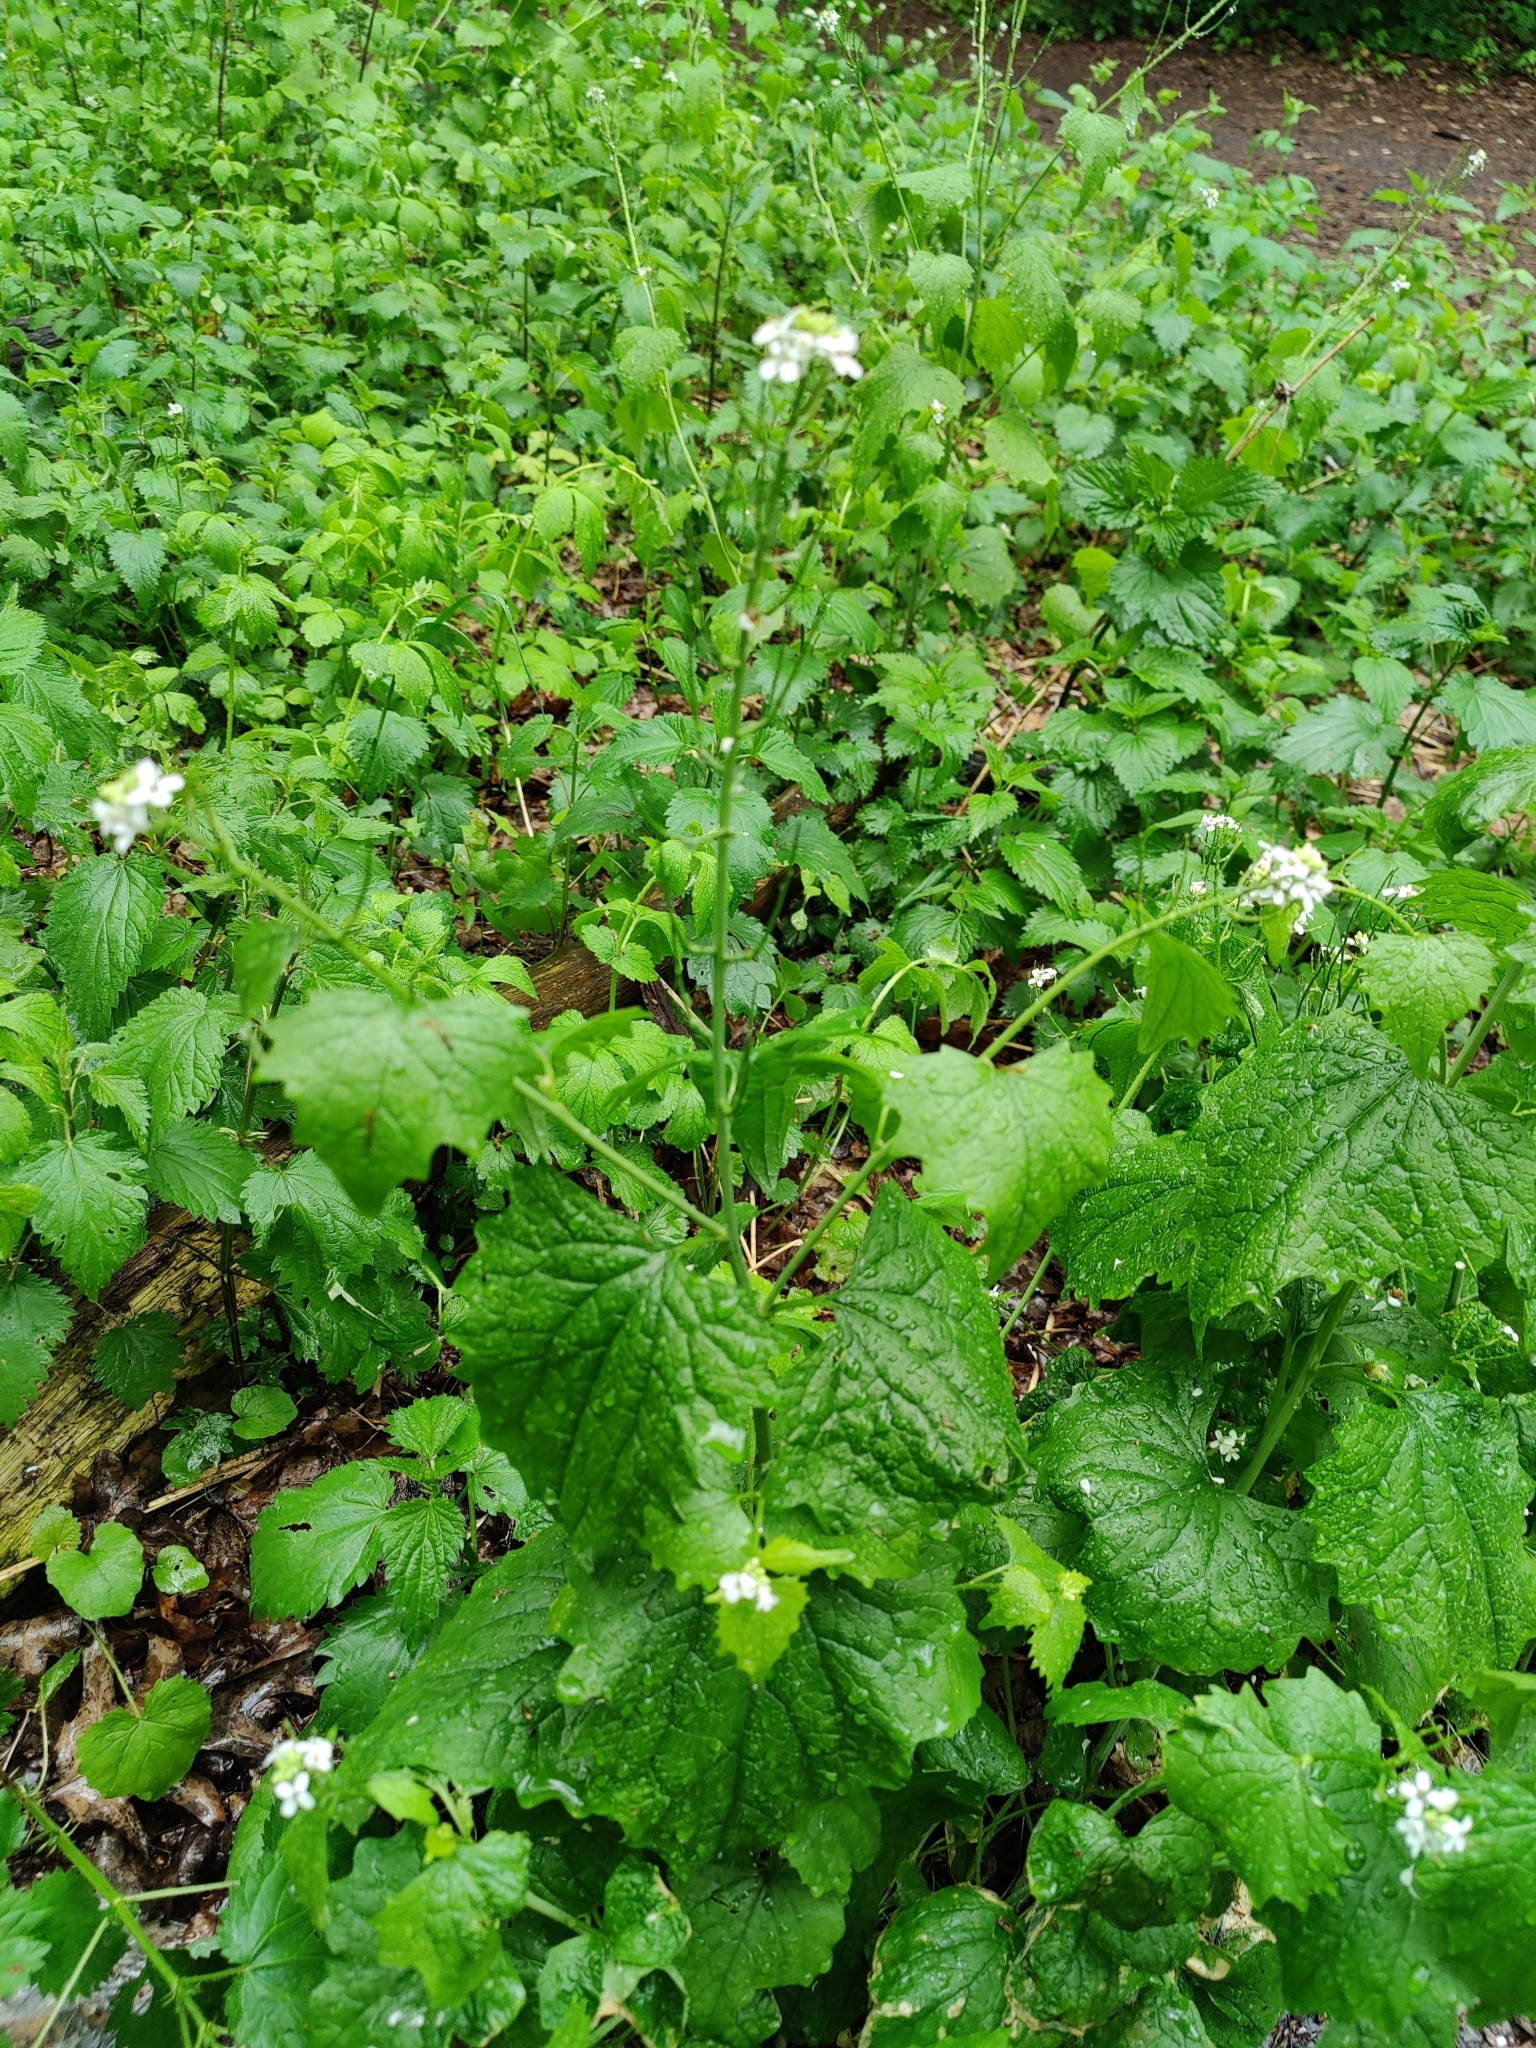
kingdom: Plantae
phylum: Tracheophyta
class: Magnoliopsida
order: Brassicales
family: Brassicaceae
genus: Alliaria
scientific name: Alliaria petiolata
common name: Garlic mustard
